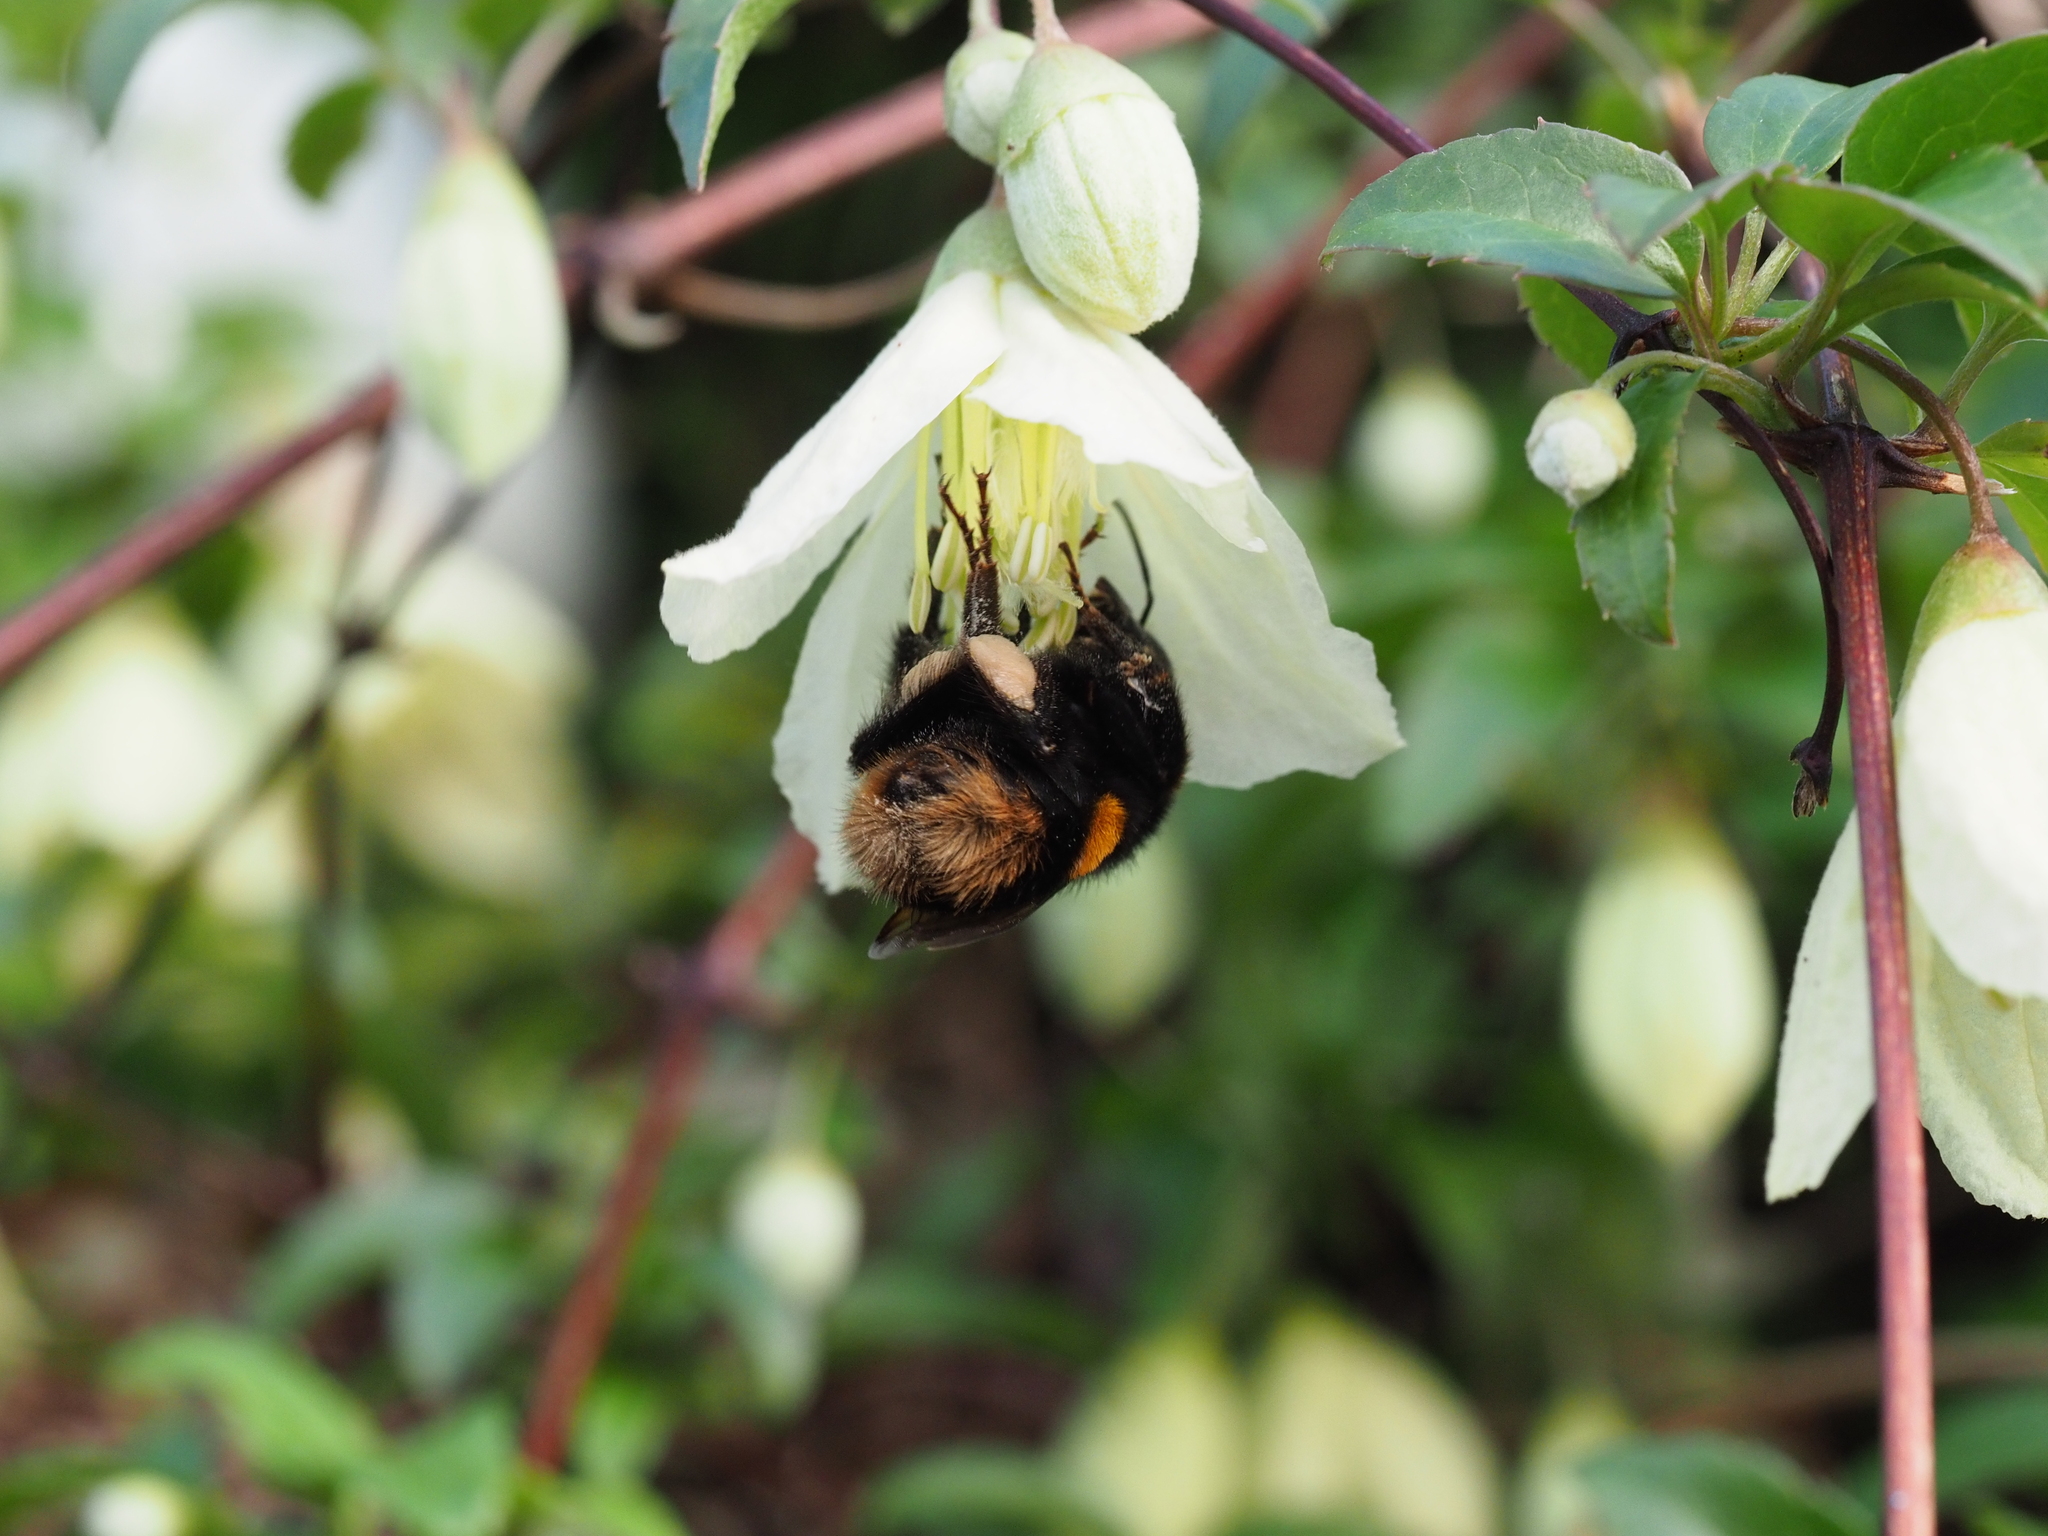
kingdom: Animalia
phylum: Arthropoda
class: Insecta
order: Hymenoptera
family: Apidae
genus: Bombus
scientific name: Bombus terrestris
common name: Buff-tailed bumblebee
